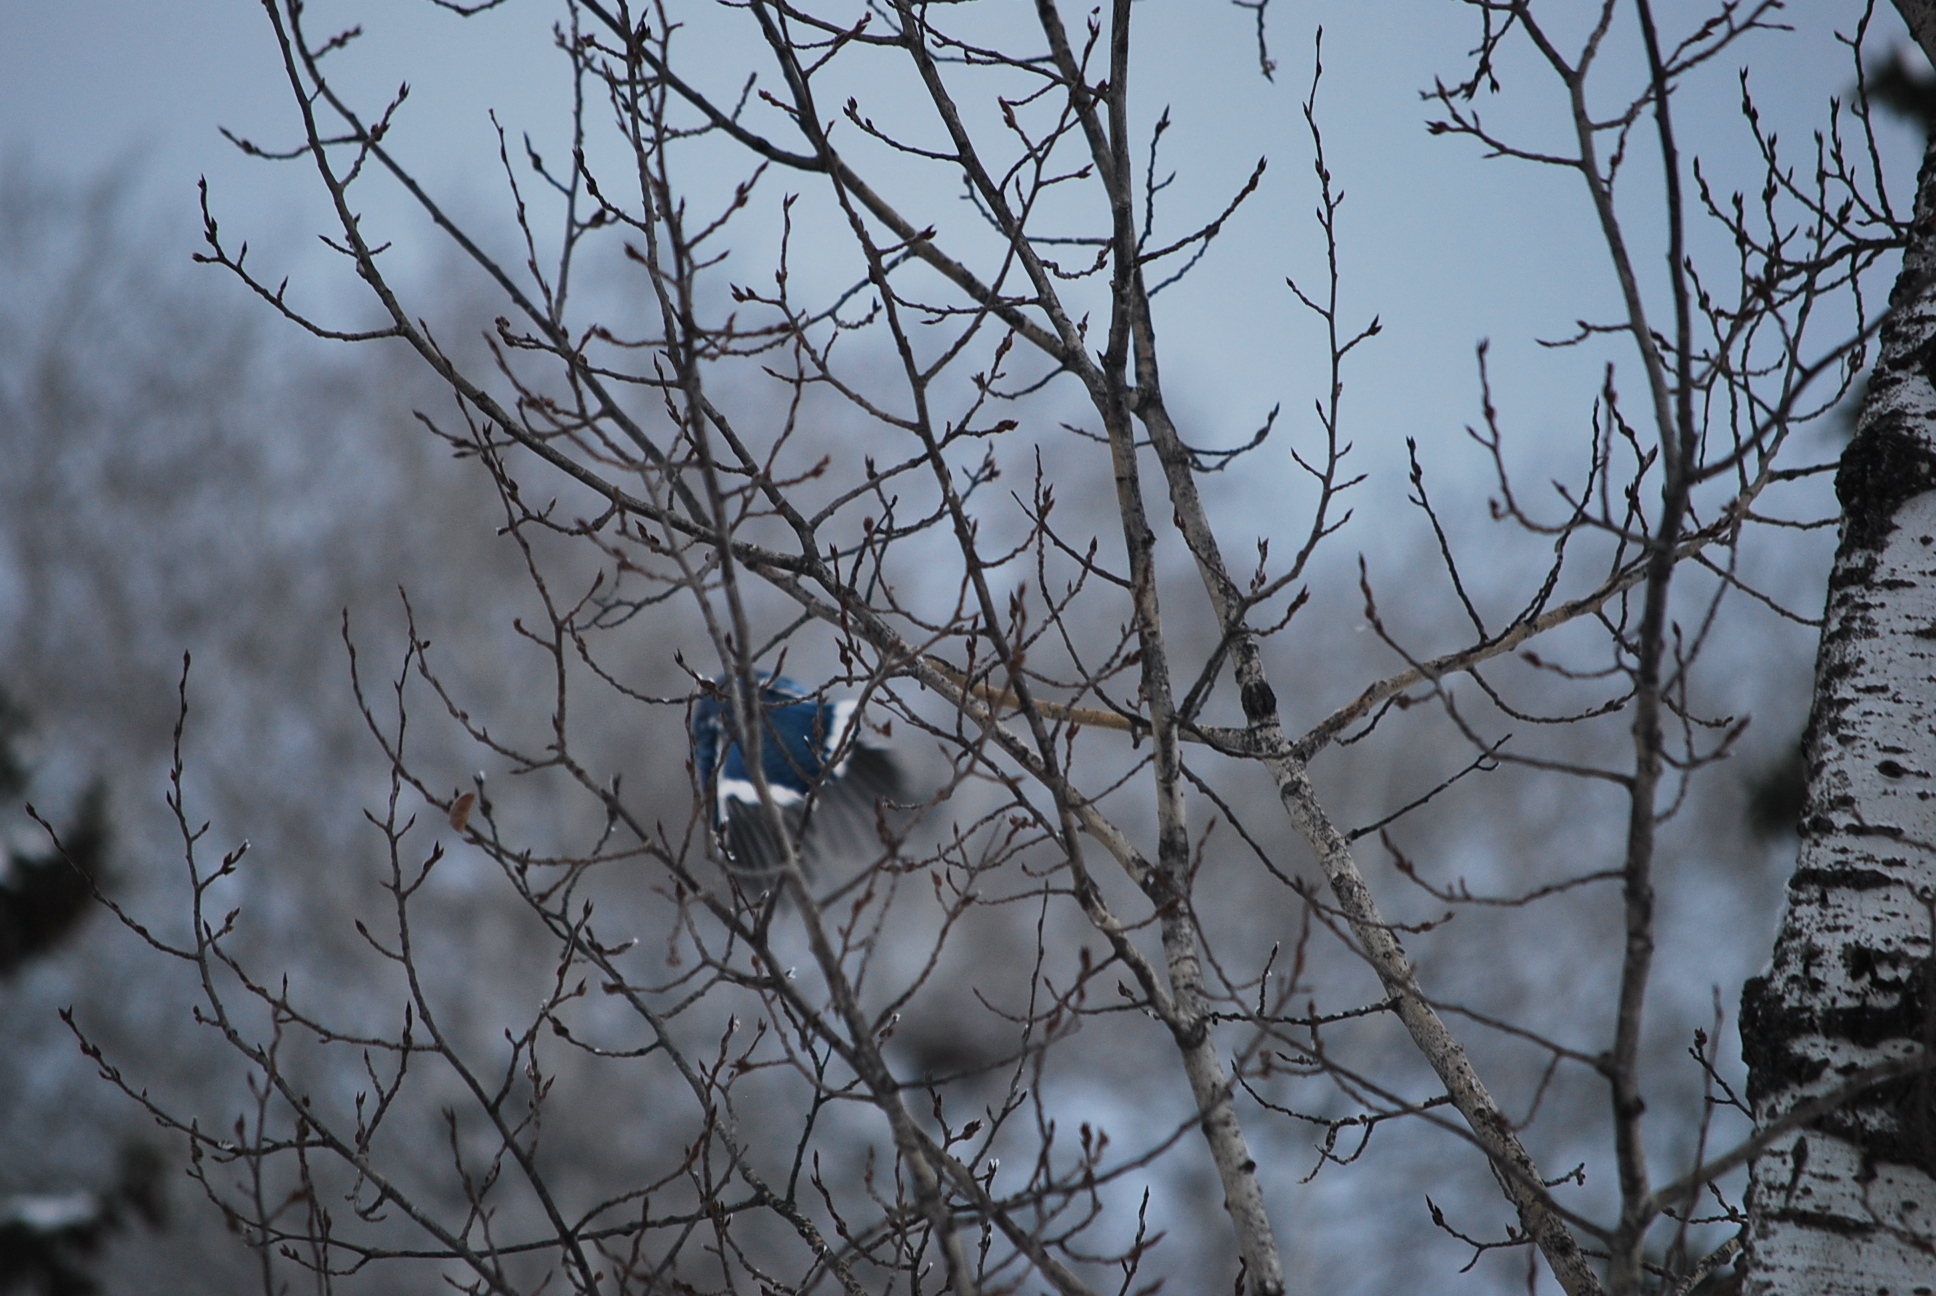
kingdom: Animalia
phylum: Chordata
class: Aves
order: Passeriformes
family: Corvidae
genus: Cyanocitta
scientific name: Cyanocitta cristata
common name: Blue jay
